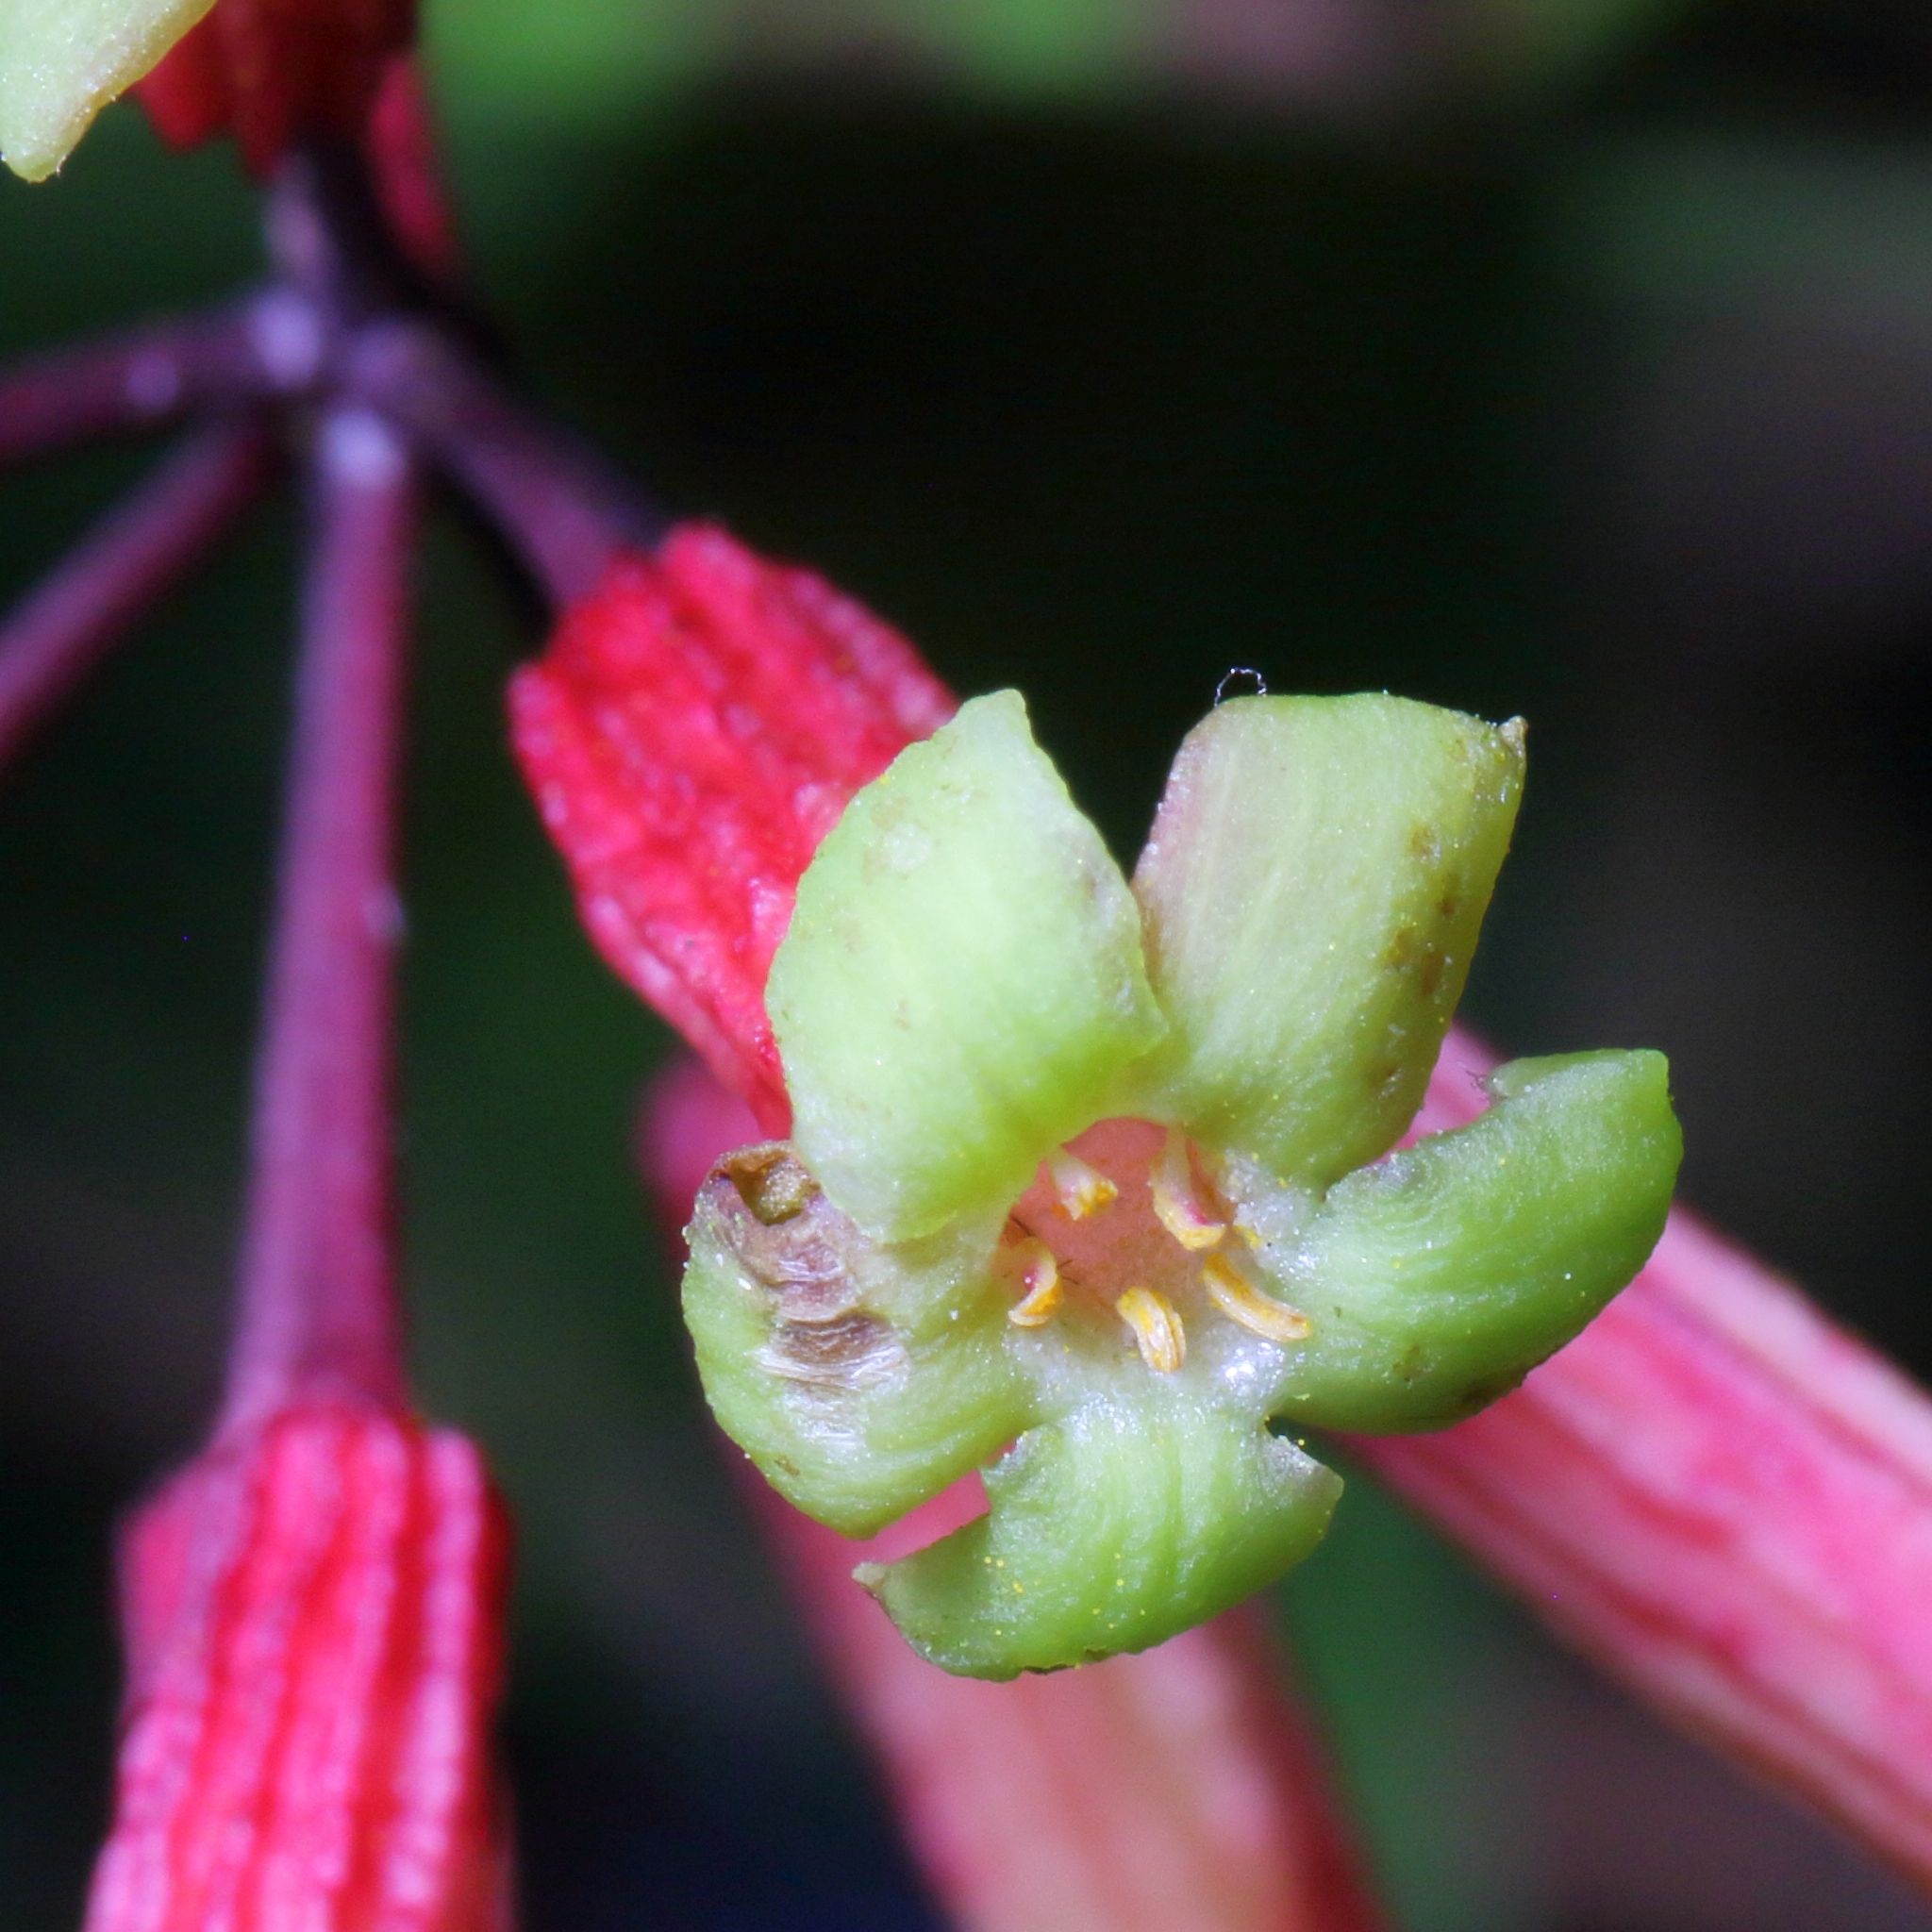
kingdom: Plantae
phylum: Tracheophyta
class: Magnoliopsida
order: Malvales
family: Thymelaeaceae
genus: Peddiea
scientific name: Peddiea africana
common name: Poison olive
